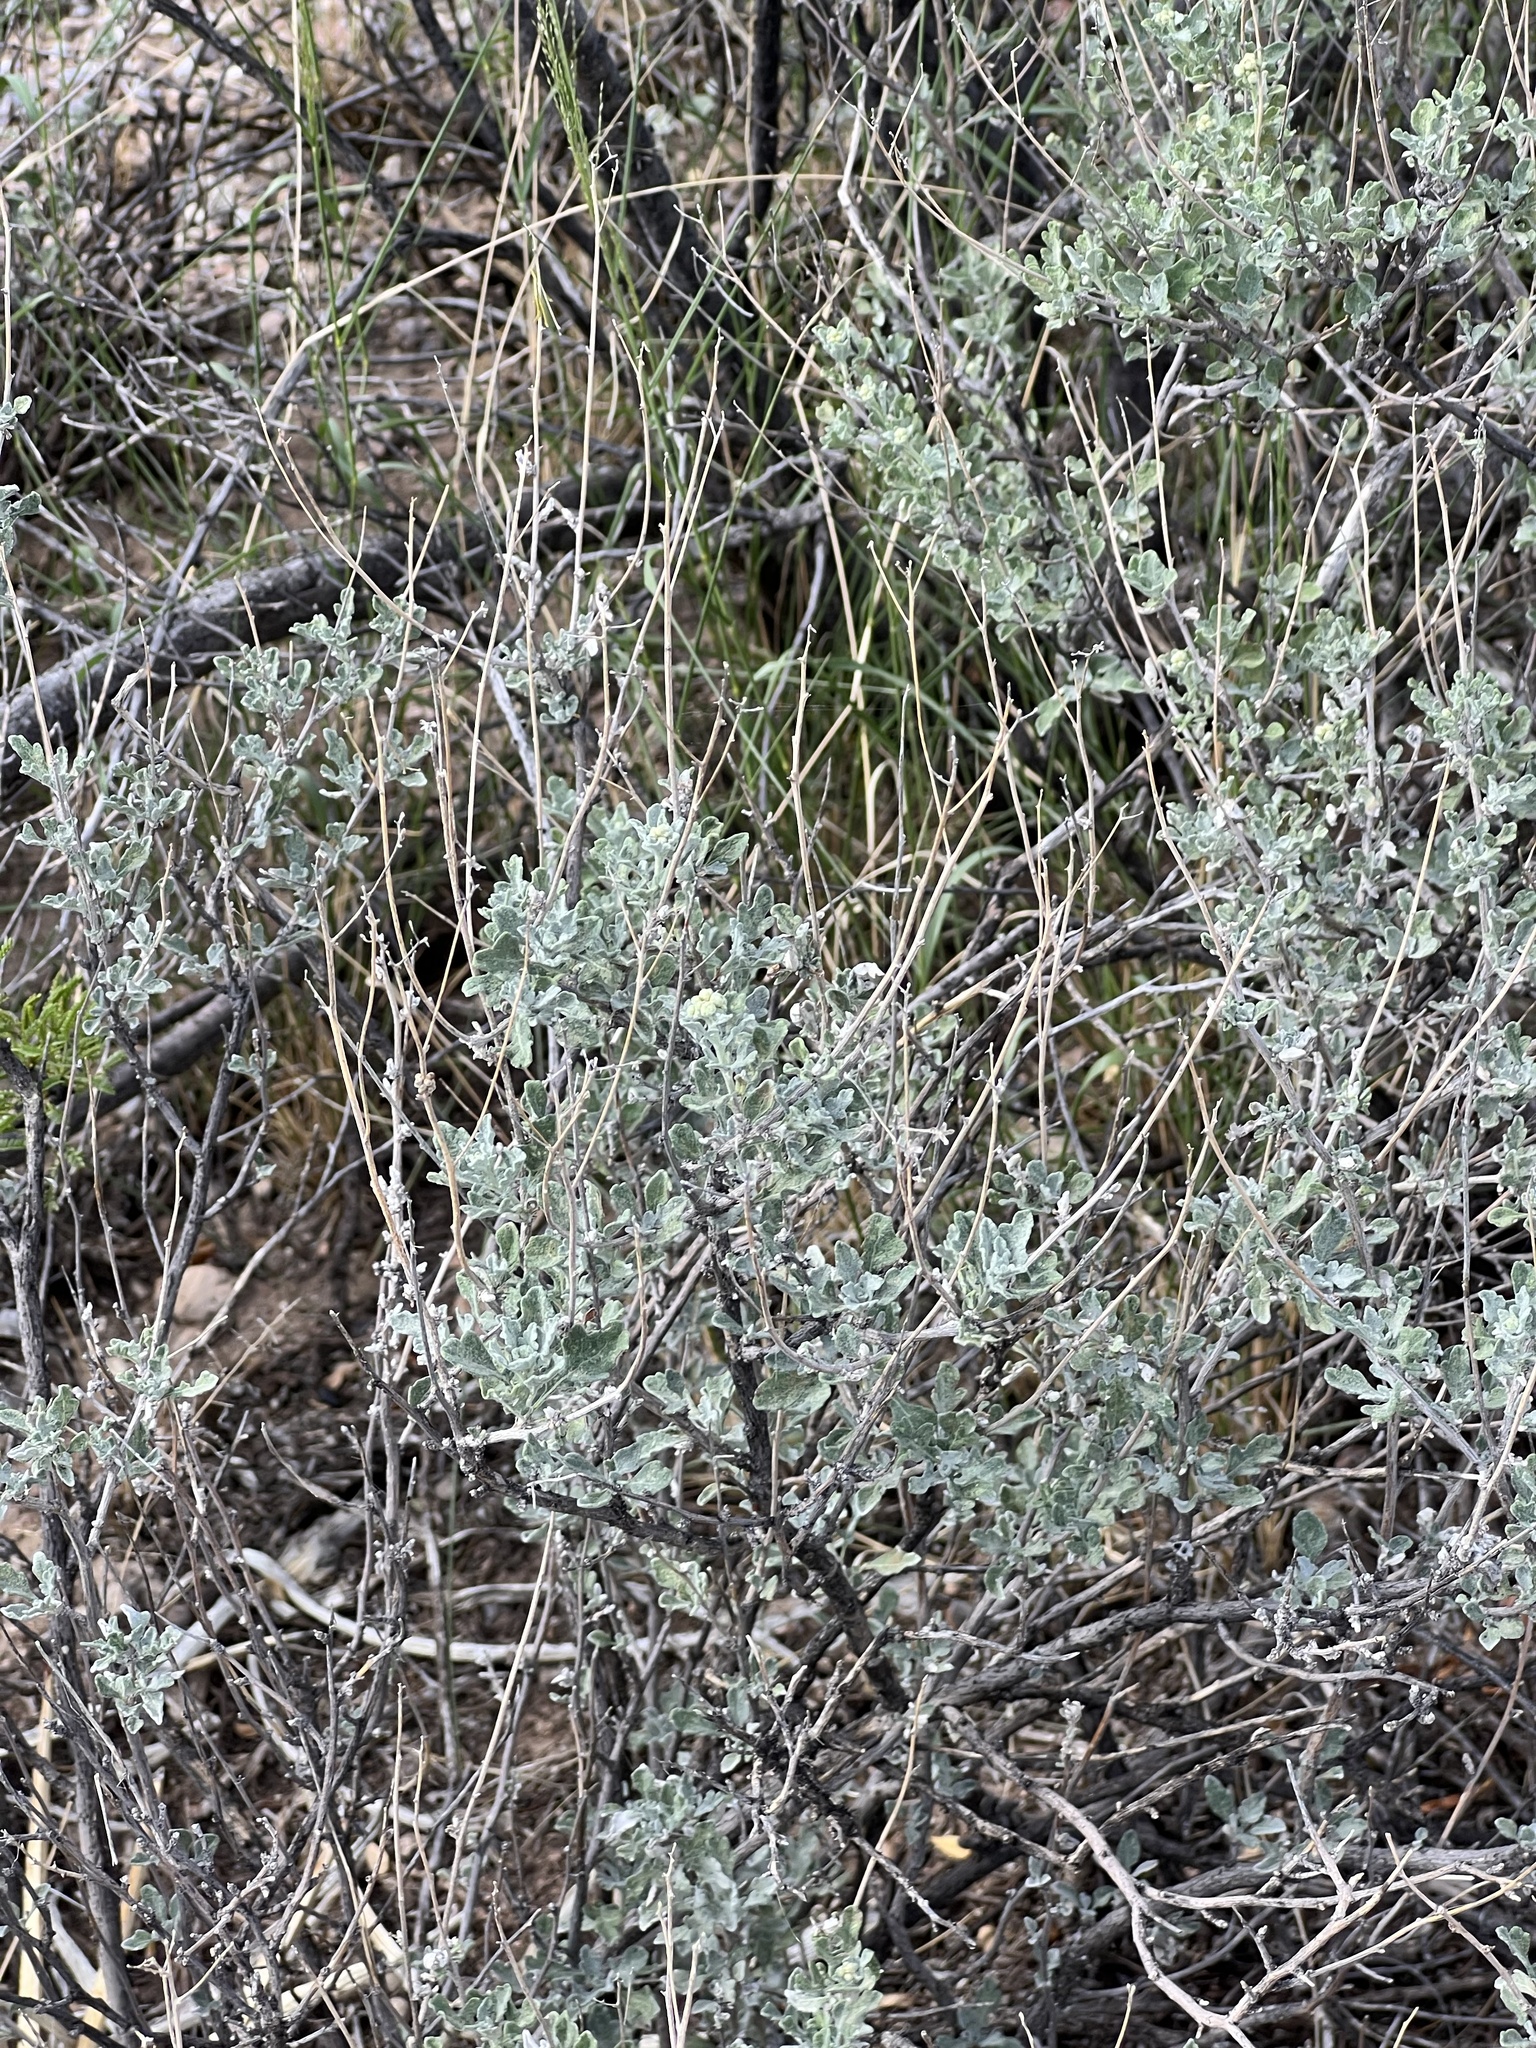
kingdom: Plantae
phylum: Tracheophyta
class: Magnoliopsida
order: Asterales
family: Asteraceae
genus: Parthenium
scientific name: Parthenium incanum
